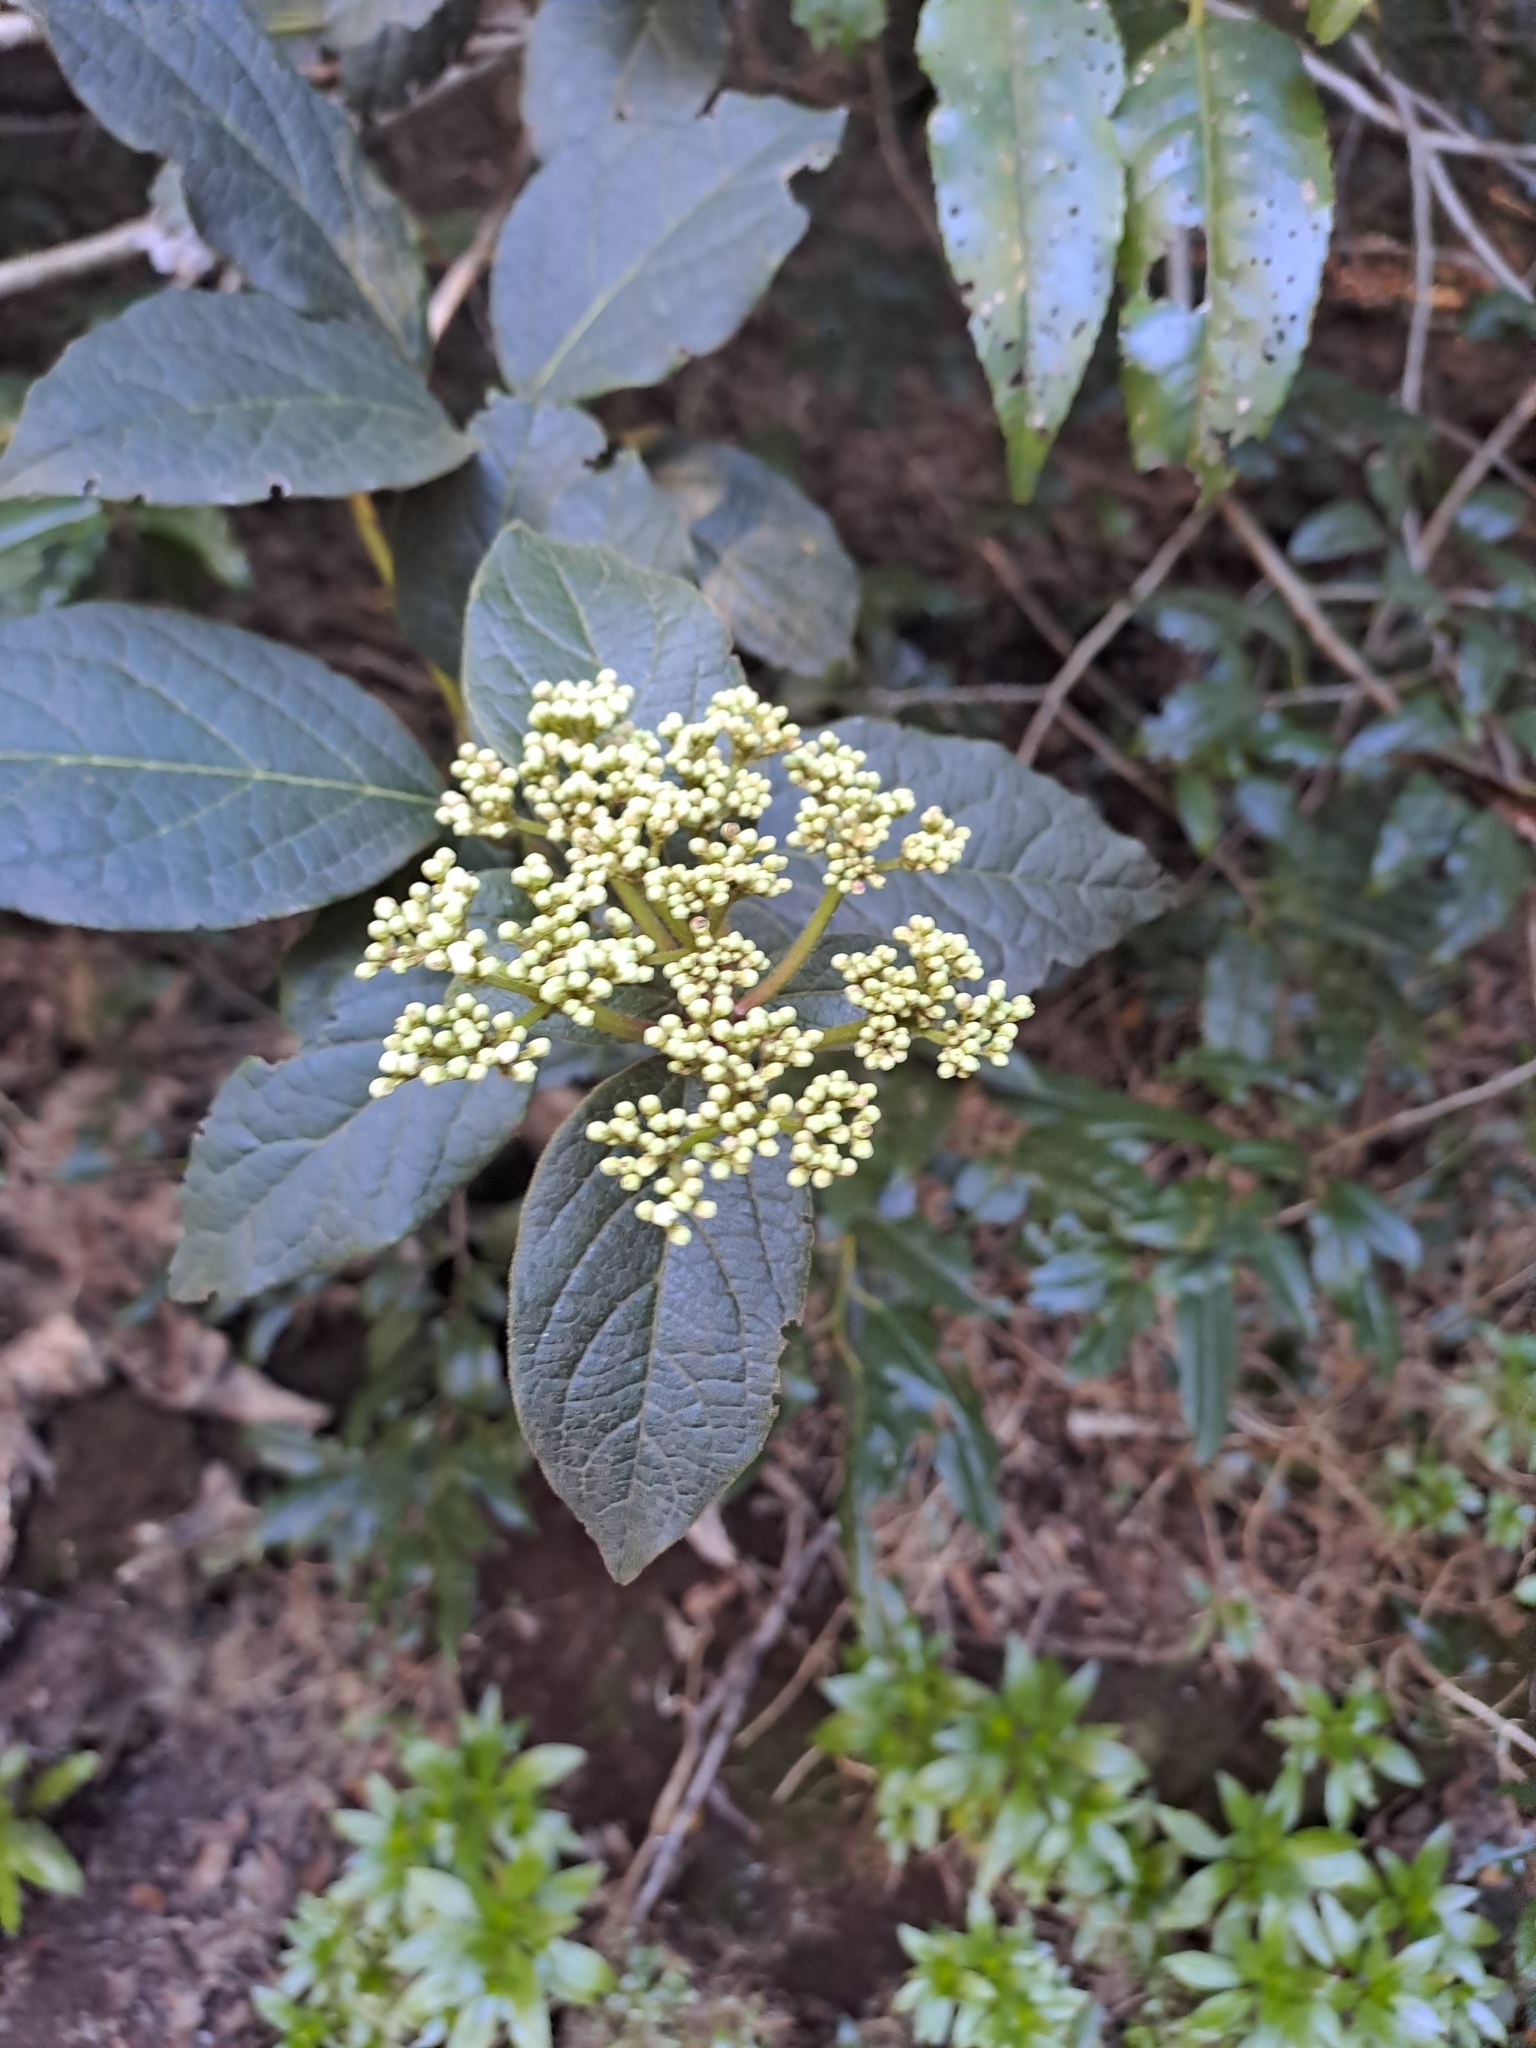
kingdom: Plantae
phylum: Tracheophyta
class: Magnoliopsida
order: Dipsacales
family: Viburnaceae
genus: Viburnum
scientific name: Viburnum rugosum
